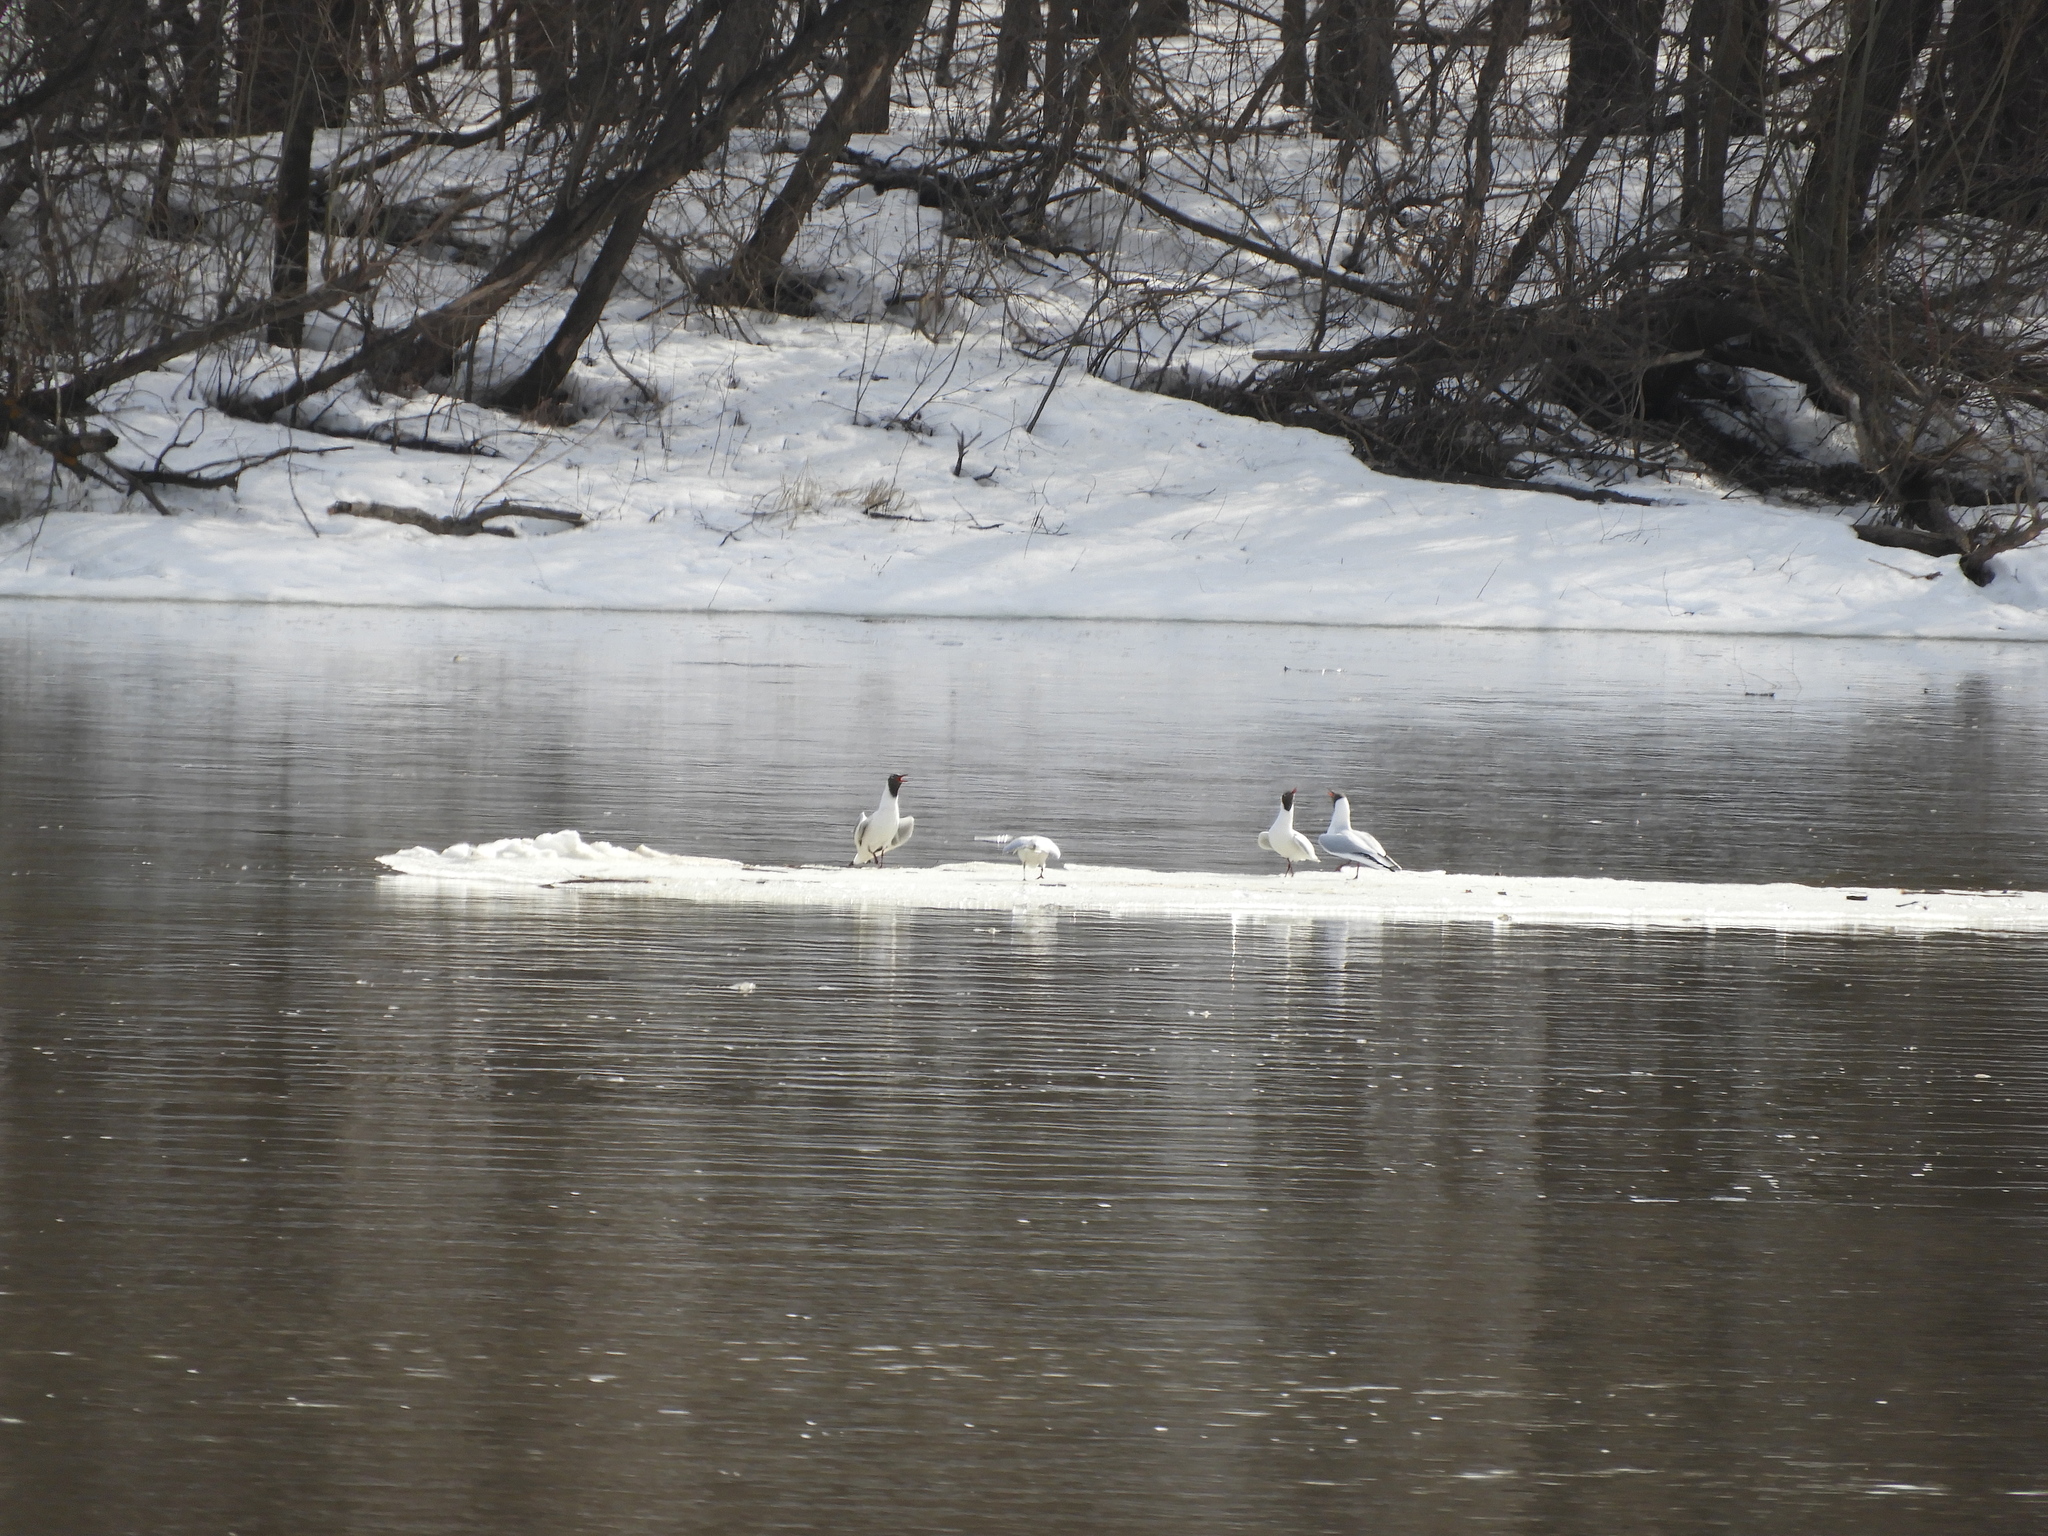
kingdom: Animalia
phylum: Chordata
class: Aves
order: Charadriiformes
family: Laridae
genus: Chroicocephalus
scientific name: Chroicocephalus ridibundus
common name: Black-headed gull
